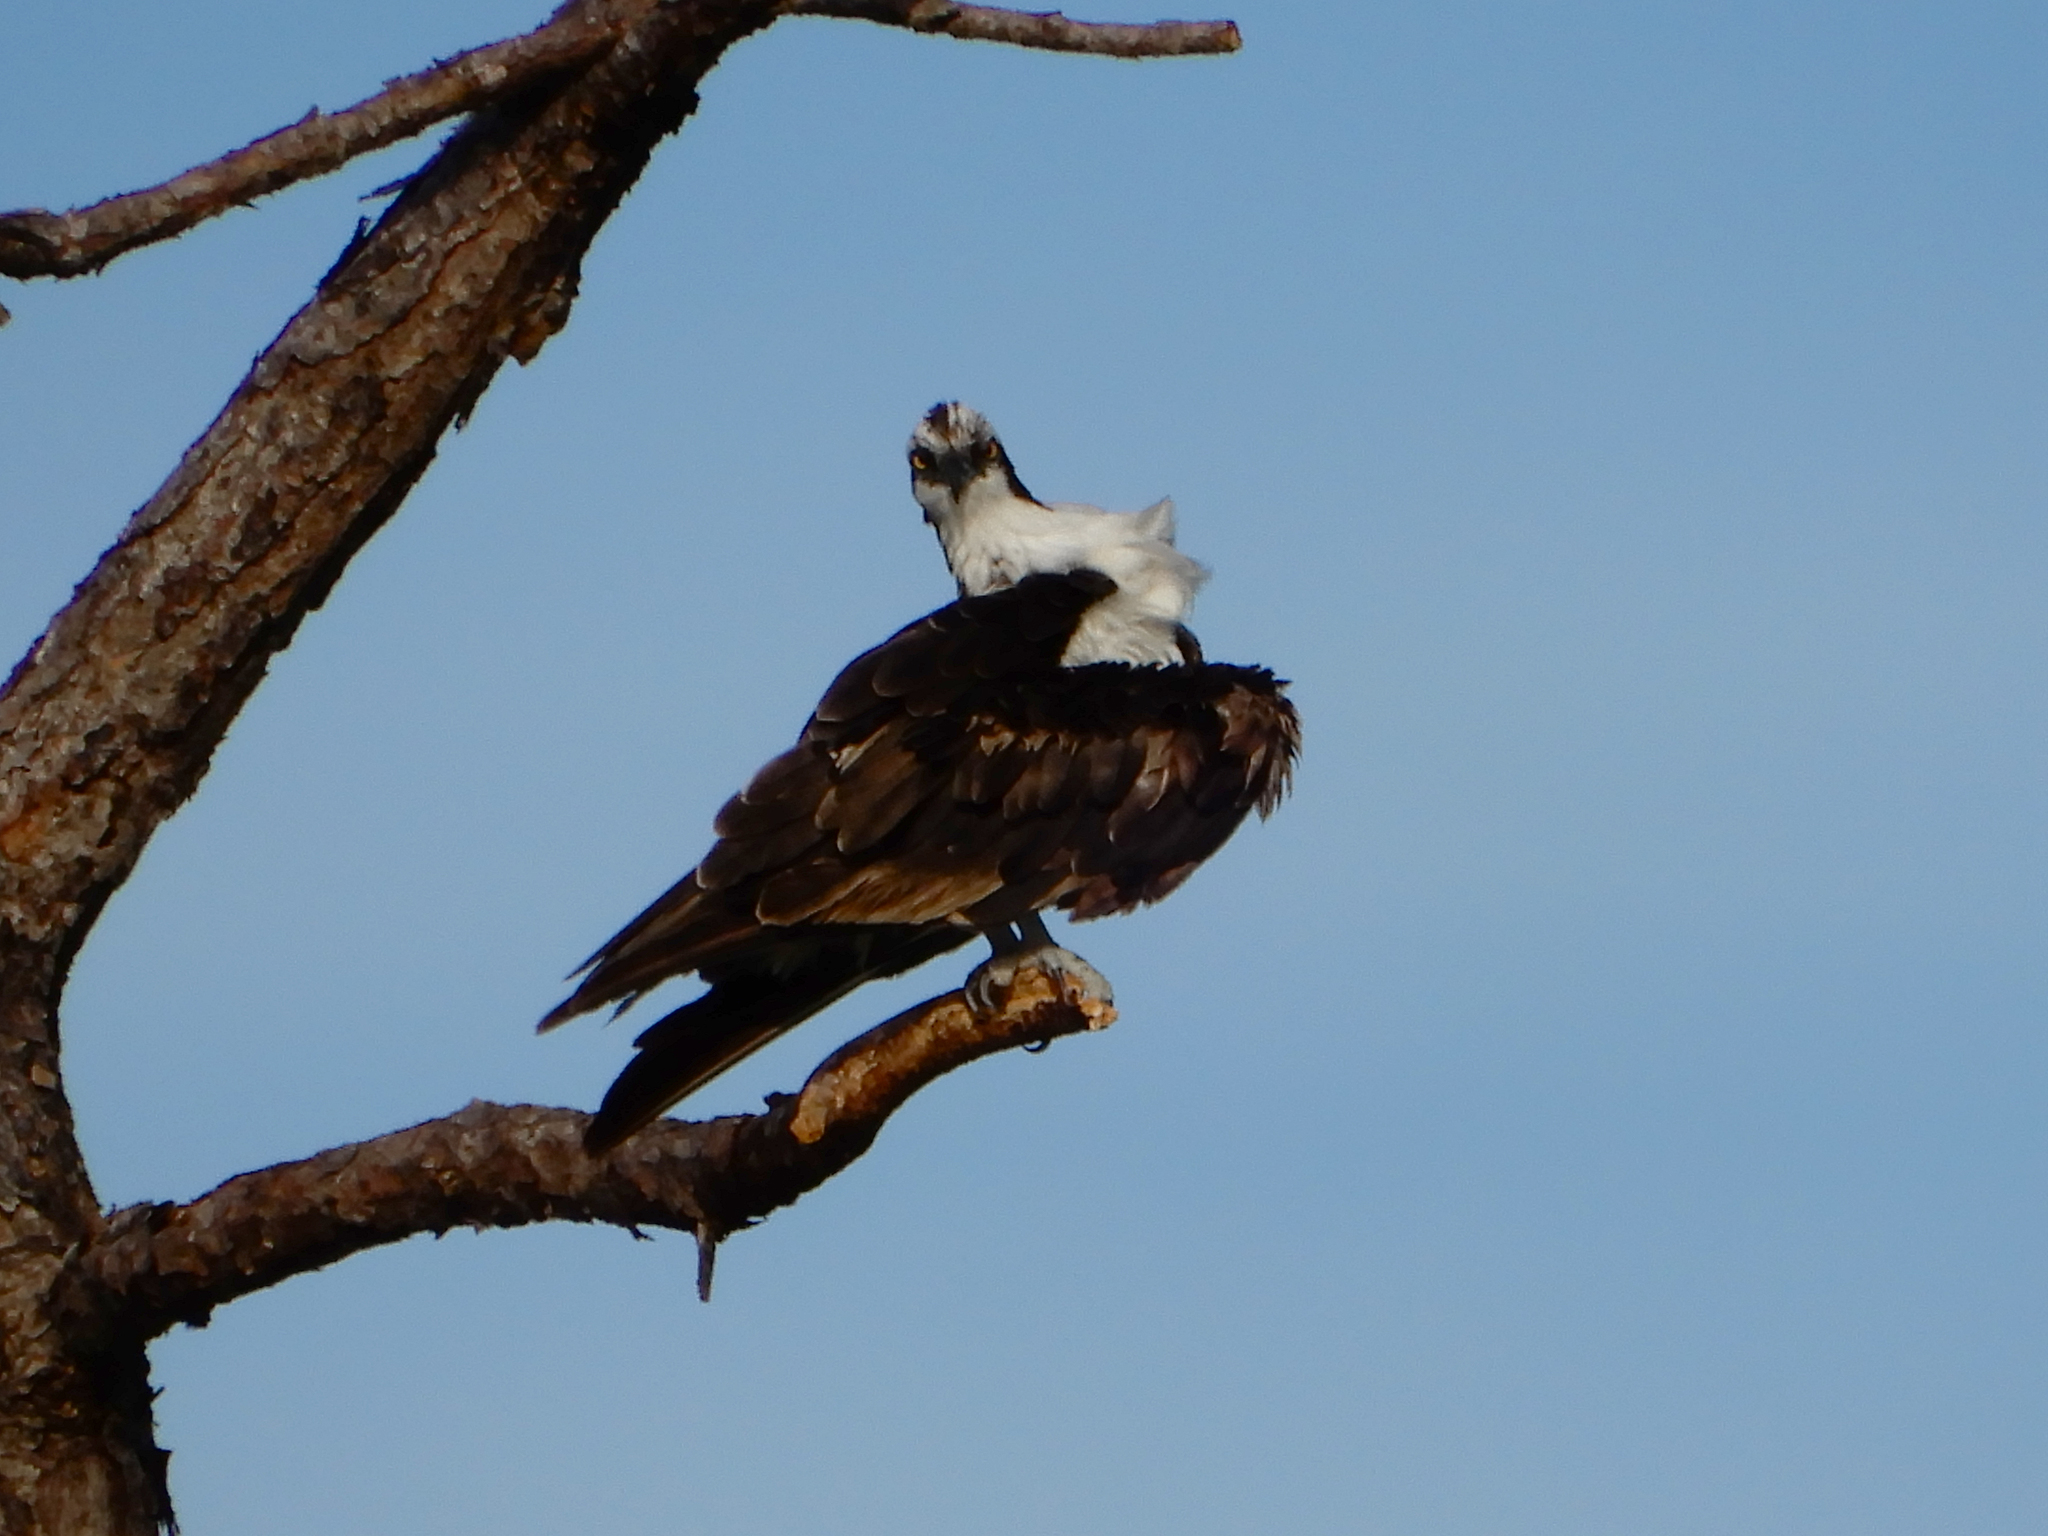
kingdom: Animalia
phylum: Chordata
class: Aves
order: Accipitriformes
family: Pandionidae
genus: Pandion
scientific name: Pandion haliaetus
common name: Osprey
